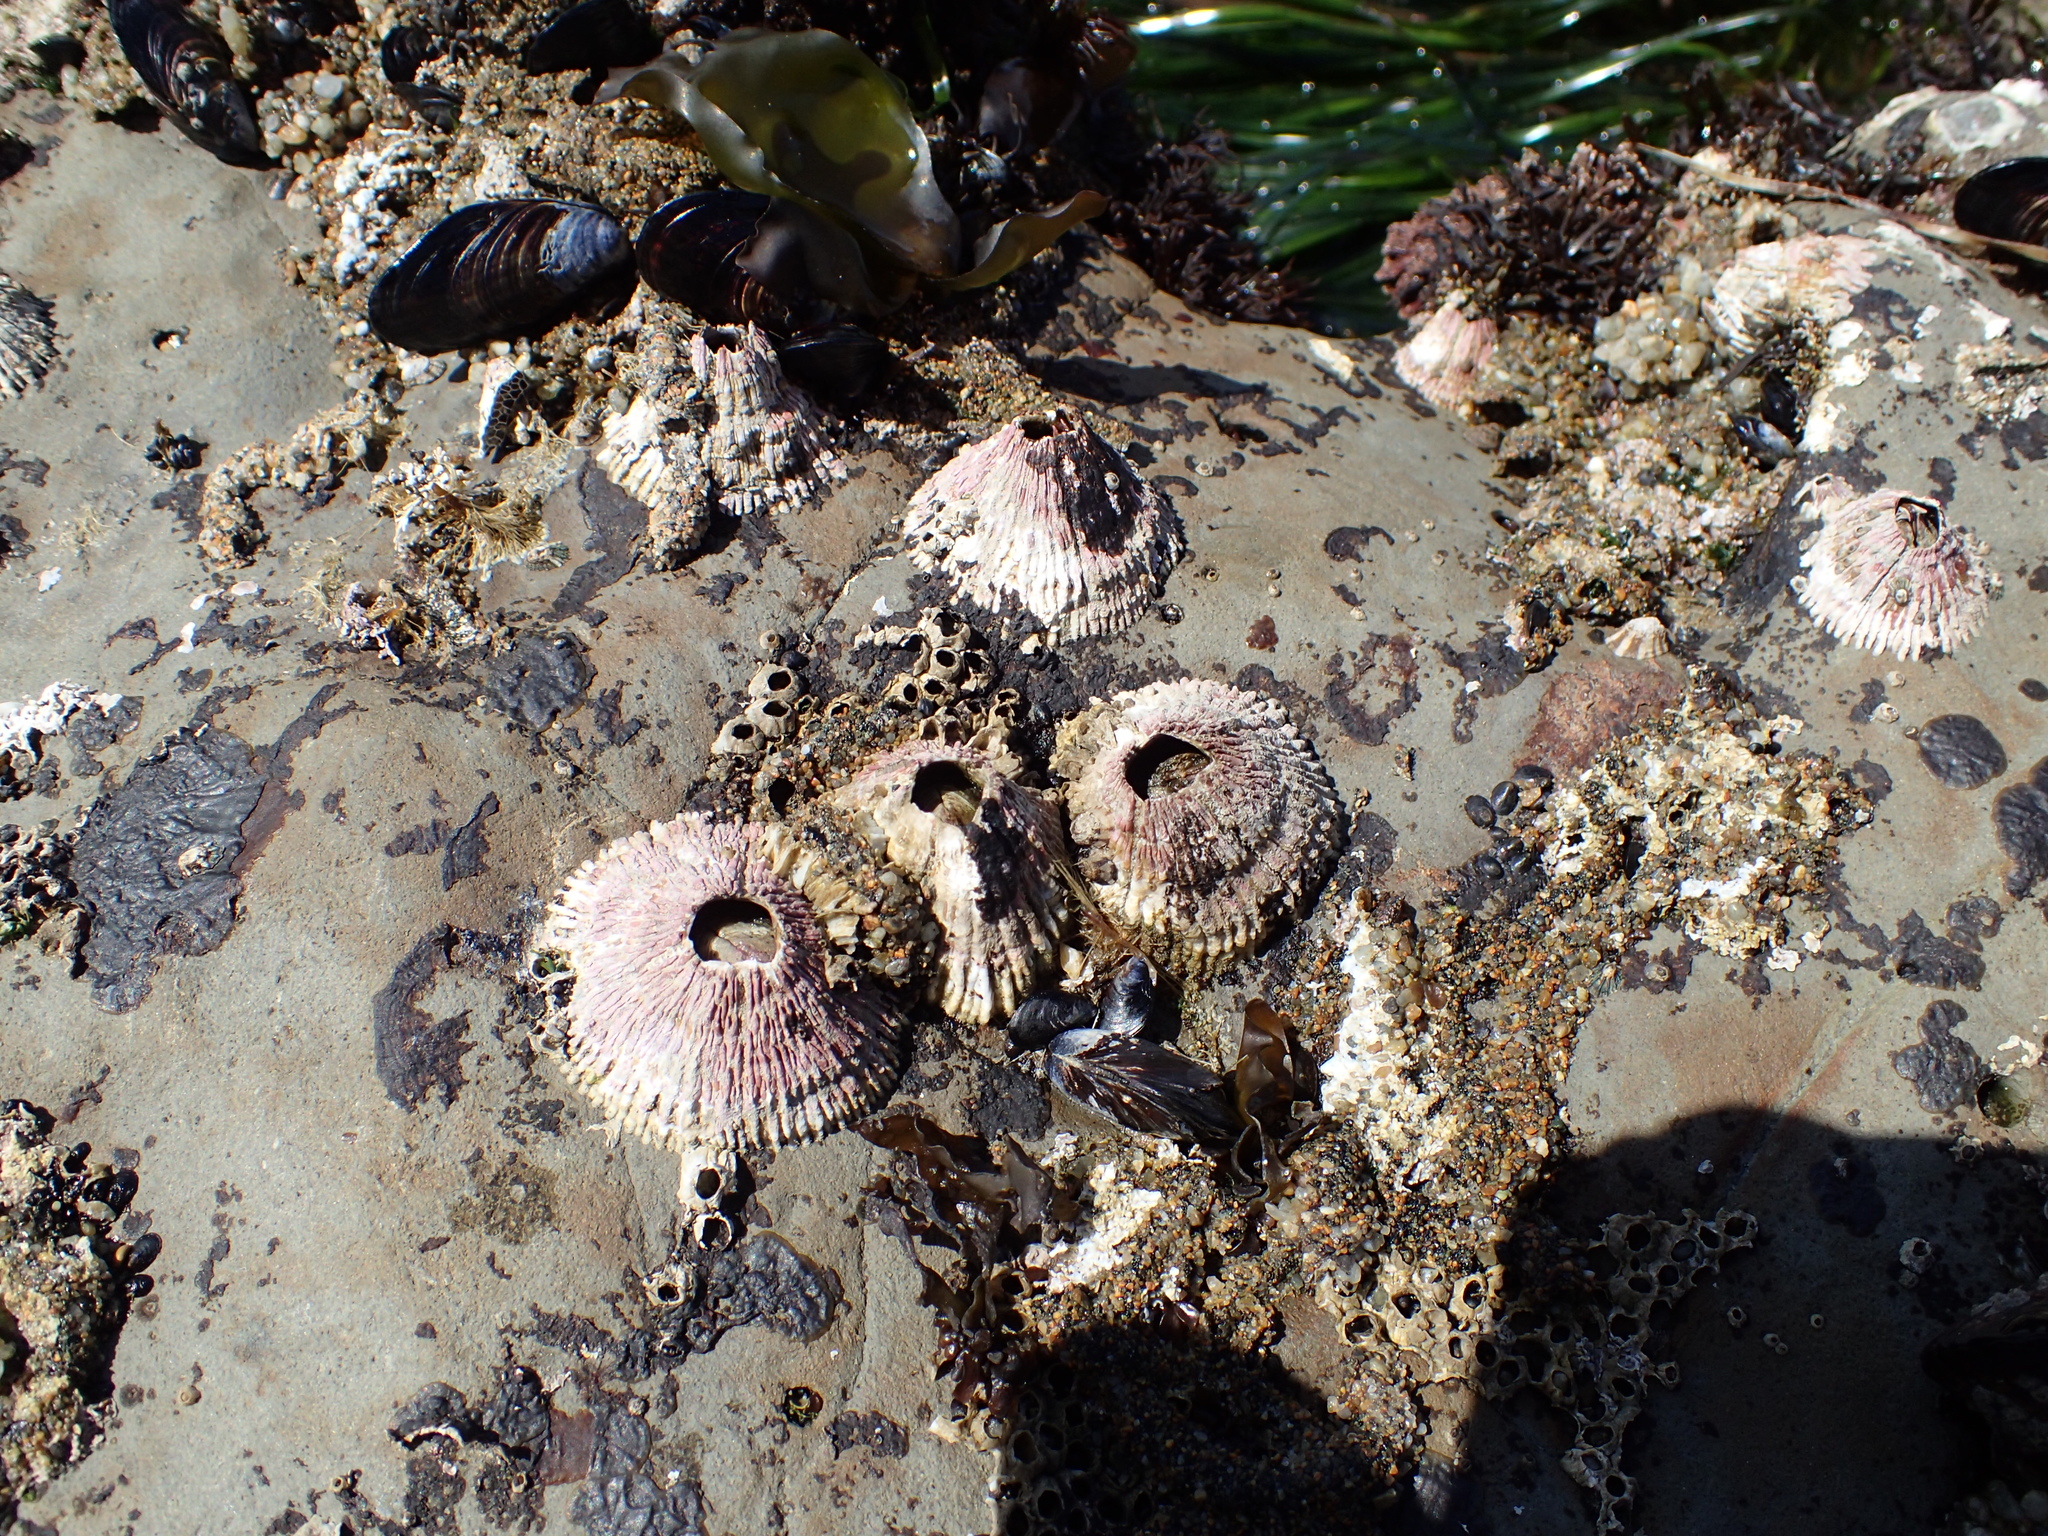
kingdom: Animalia
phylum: Arthropoda
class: Maxillopoda
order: Sessilia
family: Tetraclitidae
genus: Tetraclita
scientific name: Tetraclita rubescens
